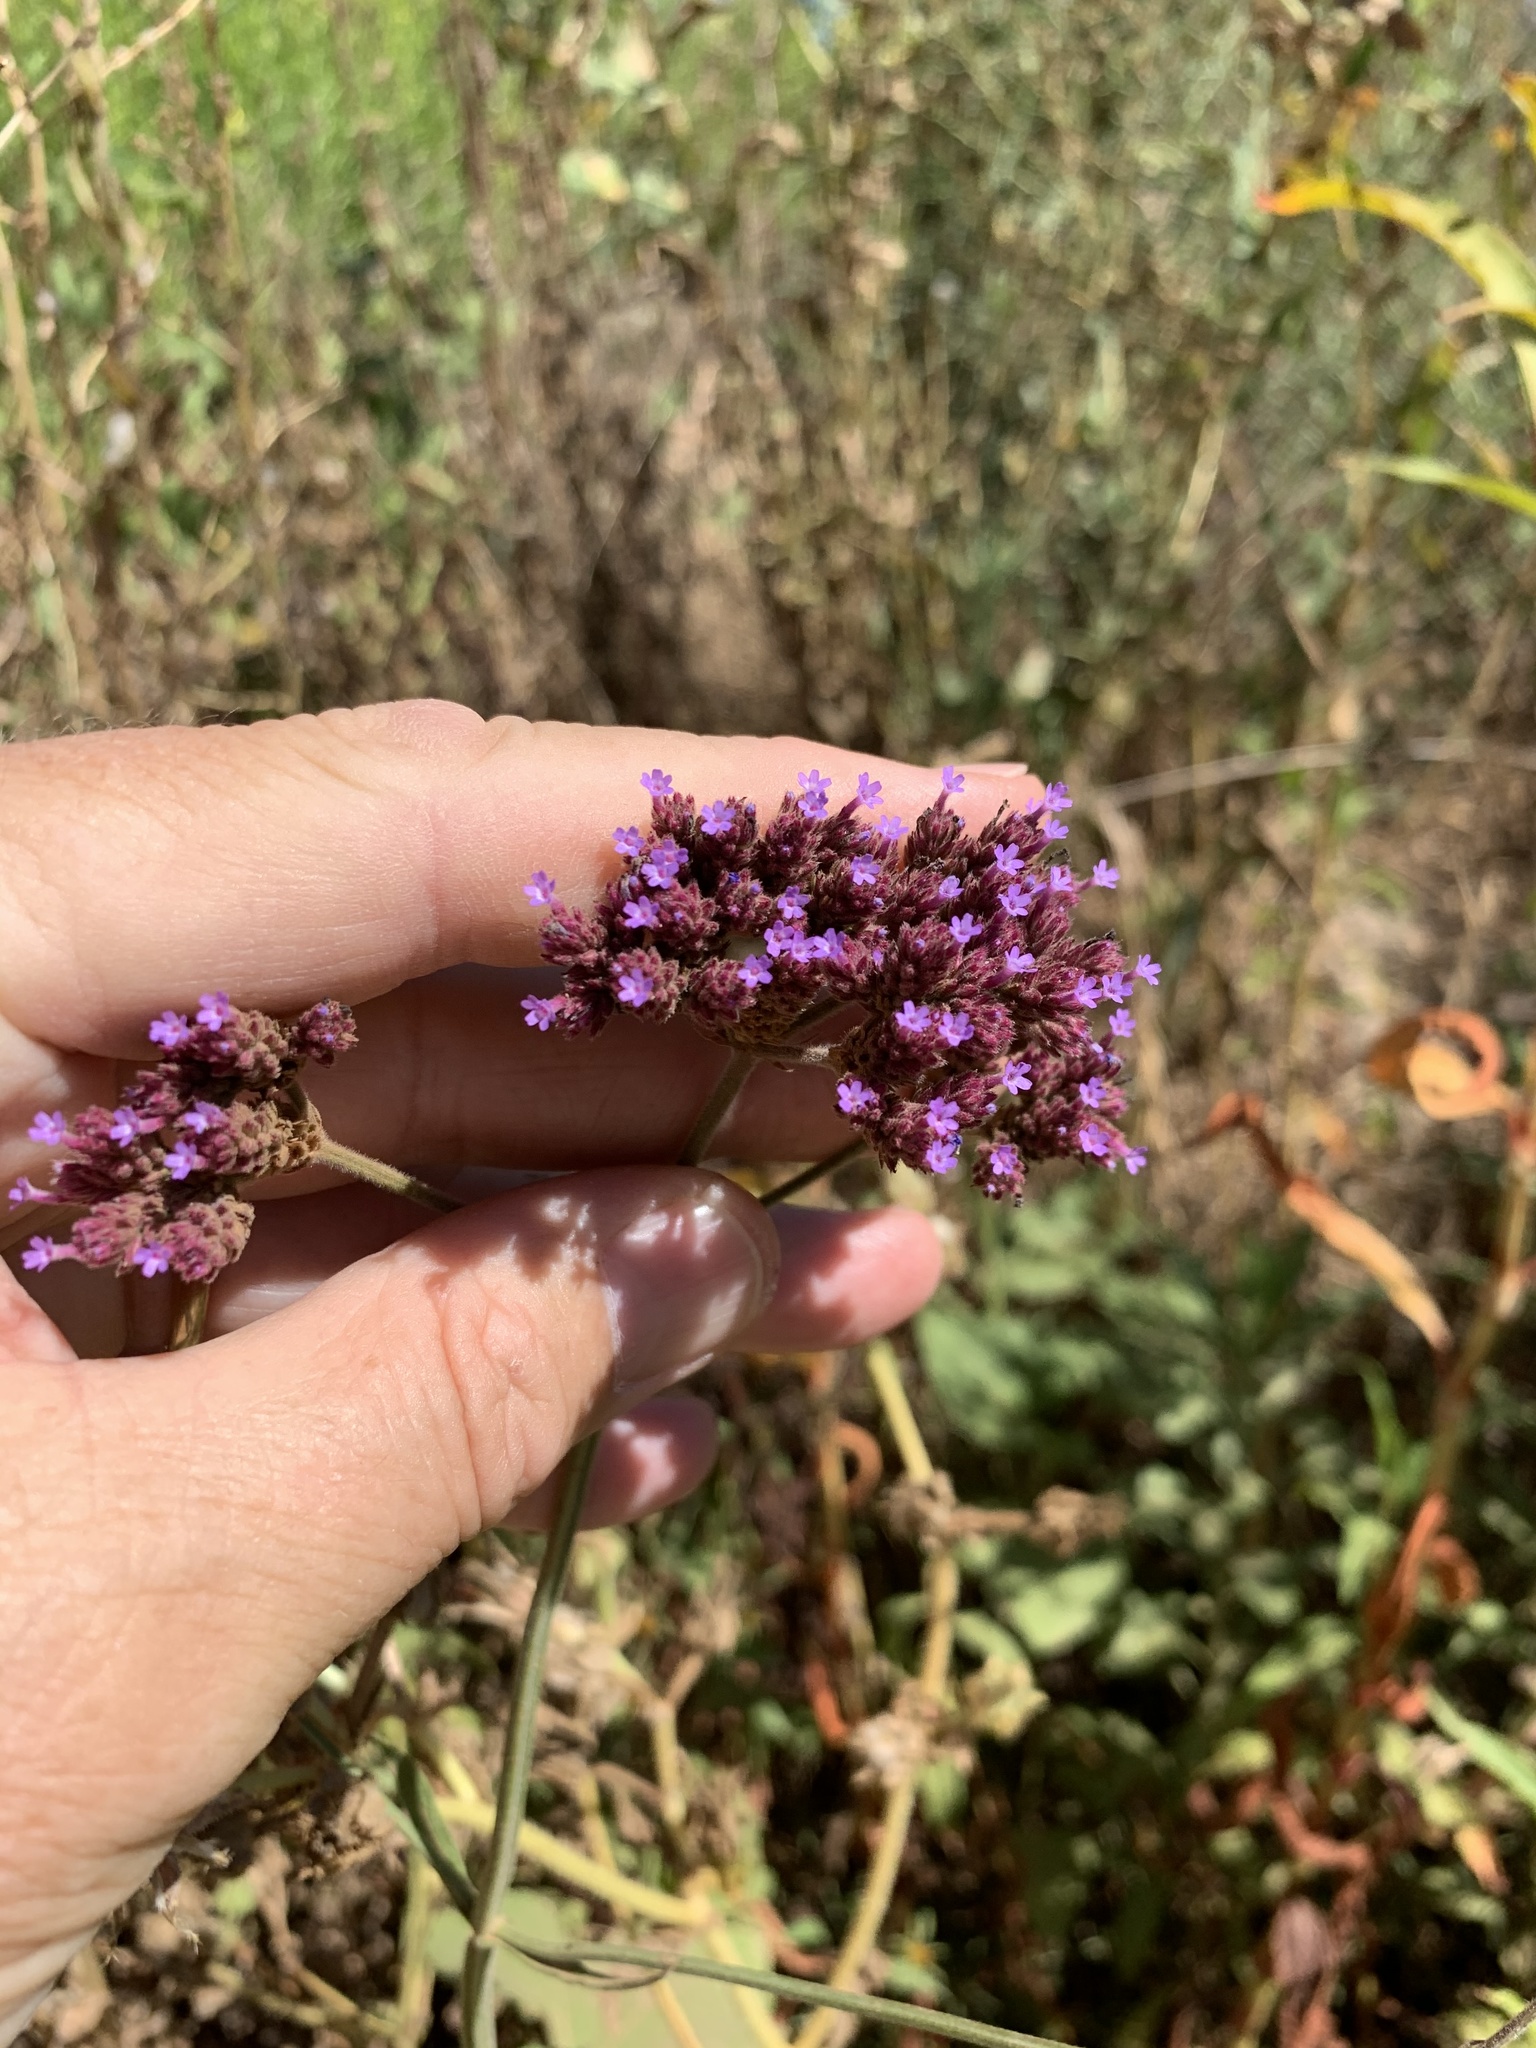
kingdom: Plantae
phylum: Tracheophyta
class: Magnoliopsida
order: Lamiales
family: Verbenaceae
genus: Verbena
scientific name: Verbena bonariensis
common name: Purpletop vervain
